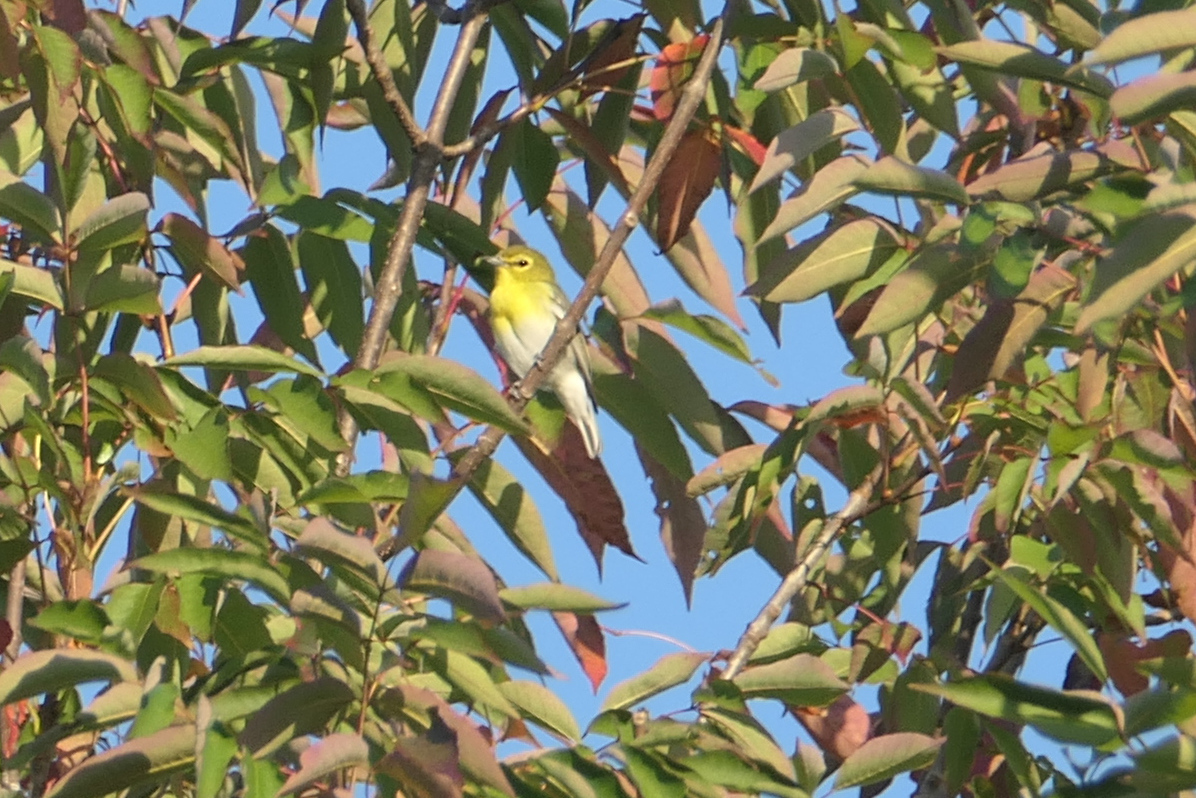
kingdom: Animalia
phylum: Chordata
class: Aves
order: Passeriformes
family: Vireonidae
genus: Vireo
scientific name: Vireo flavifrons
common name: Yellow-throated vireo
